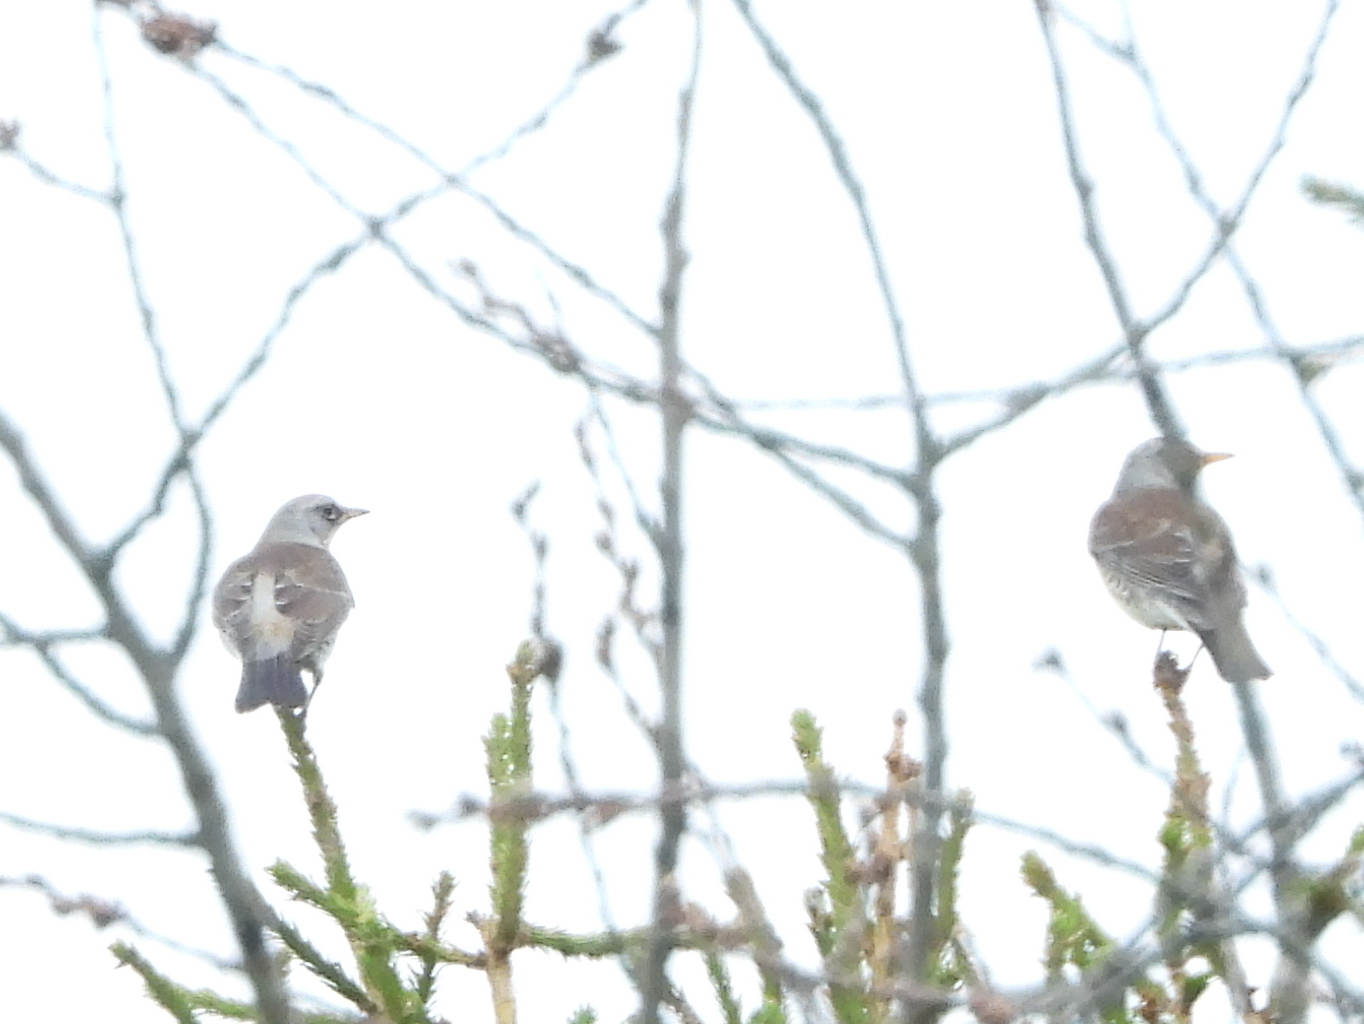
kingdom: Animalia
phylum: Chordata
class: Aves
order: Passeriformes
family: Turdidae
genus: Turdus
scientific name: Turdus pilaris
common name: Fieldfare
